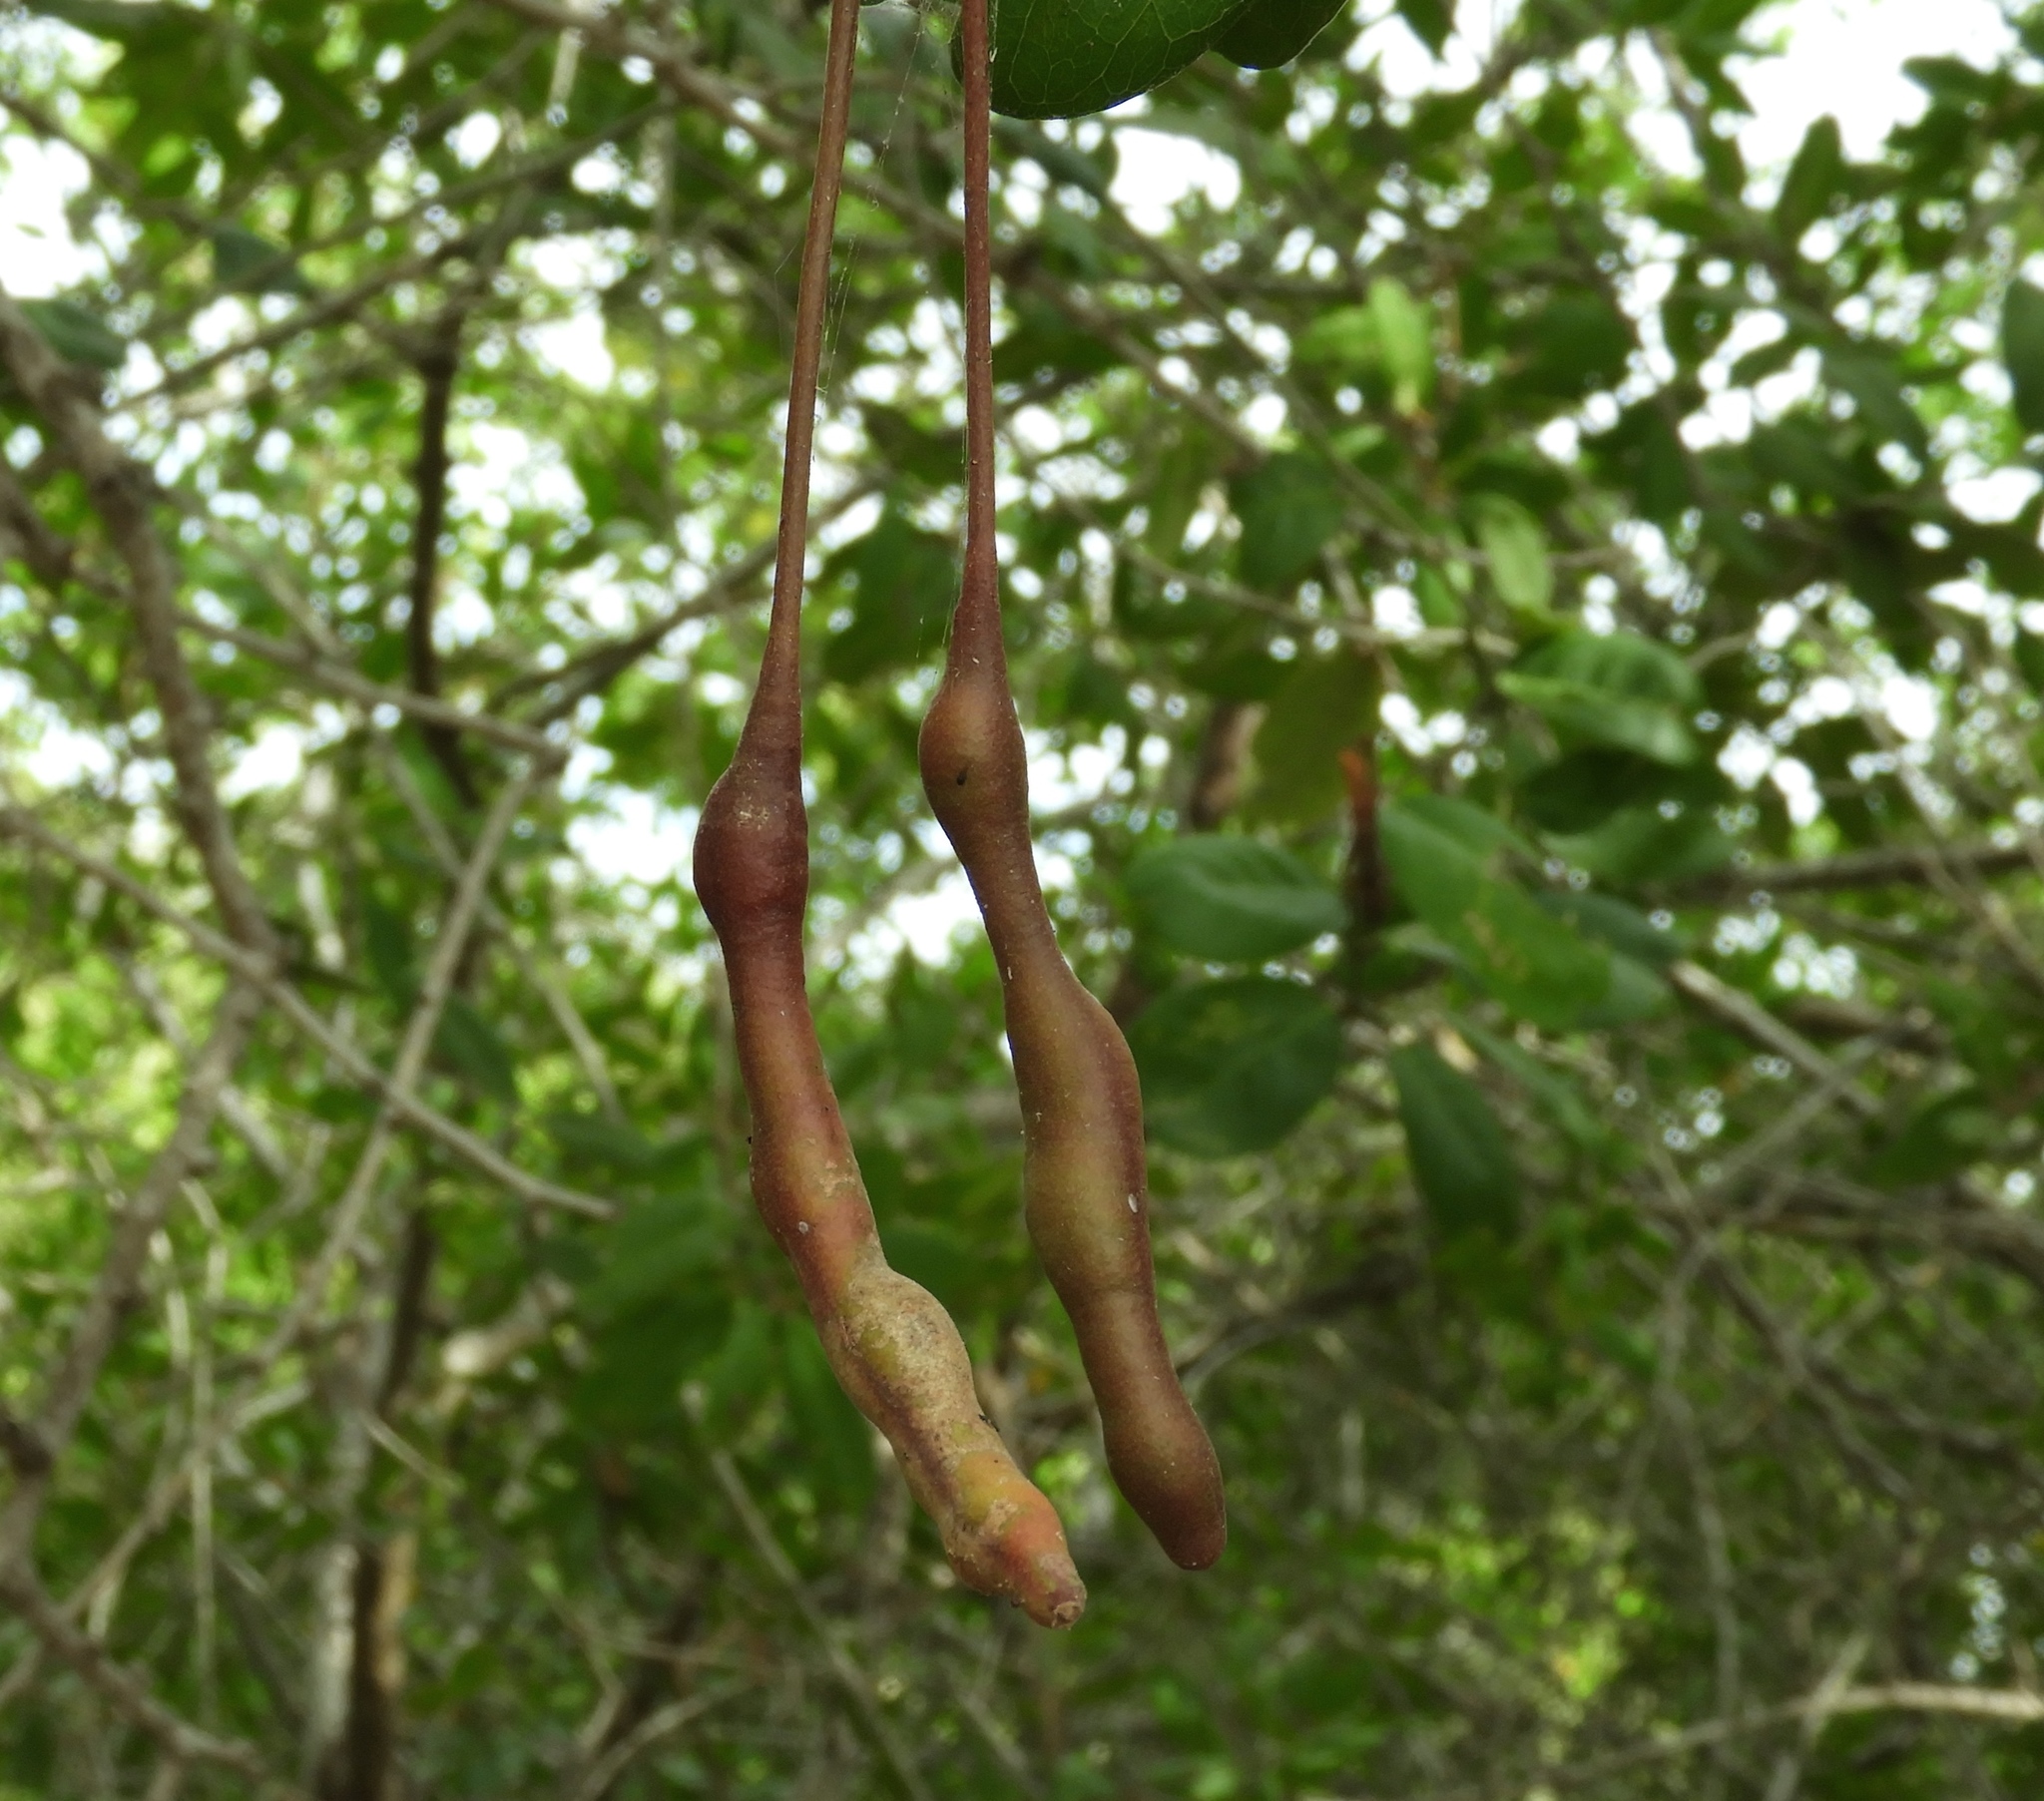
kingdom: Plantae
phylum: Tracheophyta
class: Magnoliopsida
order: Brassicales
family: Capparaceae
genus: Cynophalla
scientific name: Cynophalla flexuosa
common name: Capertree
